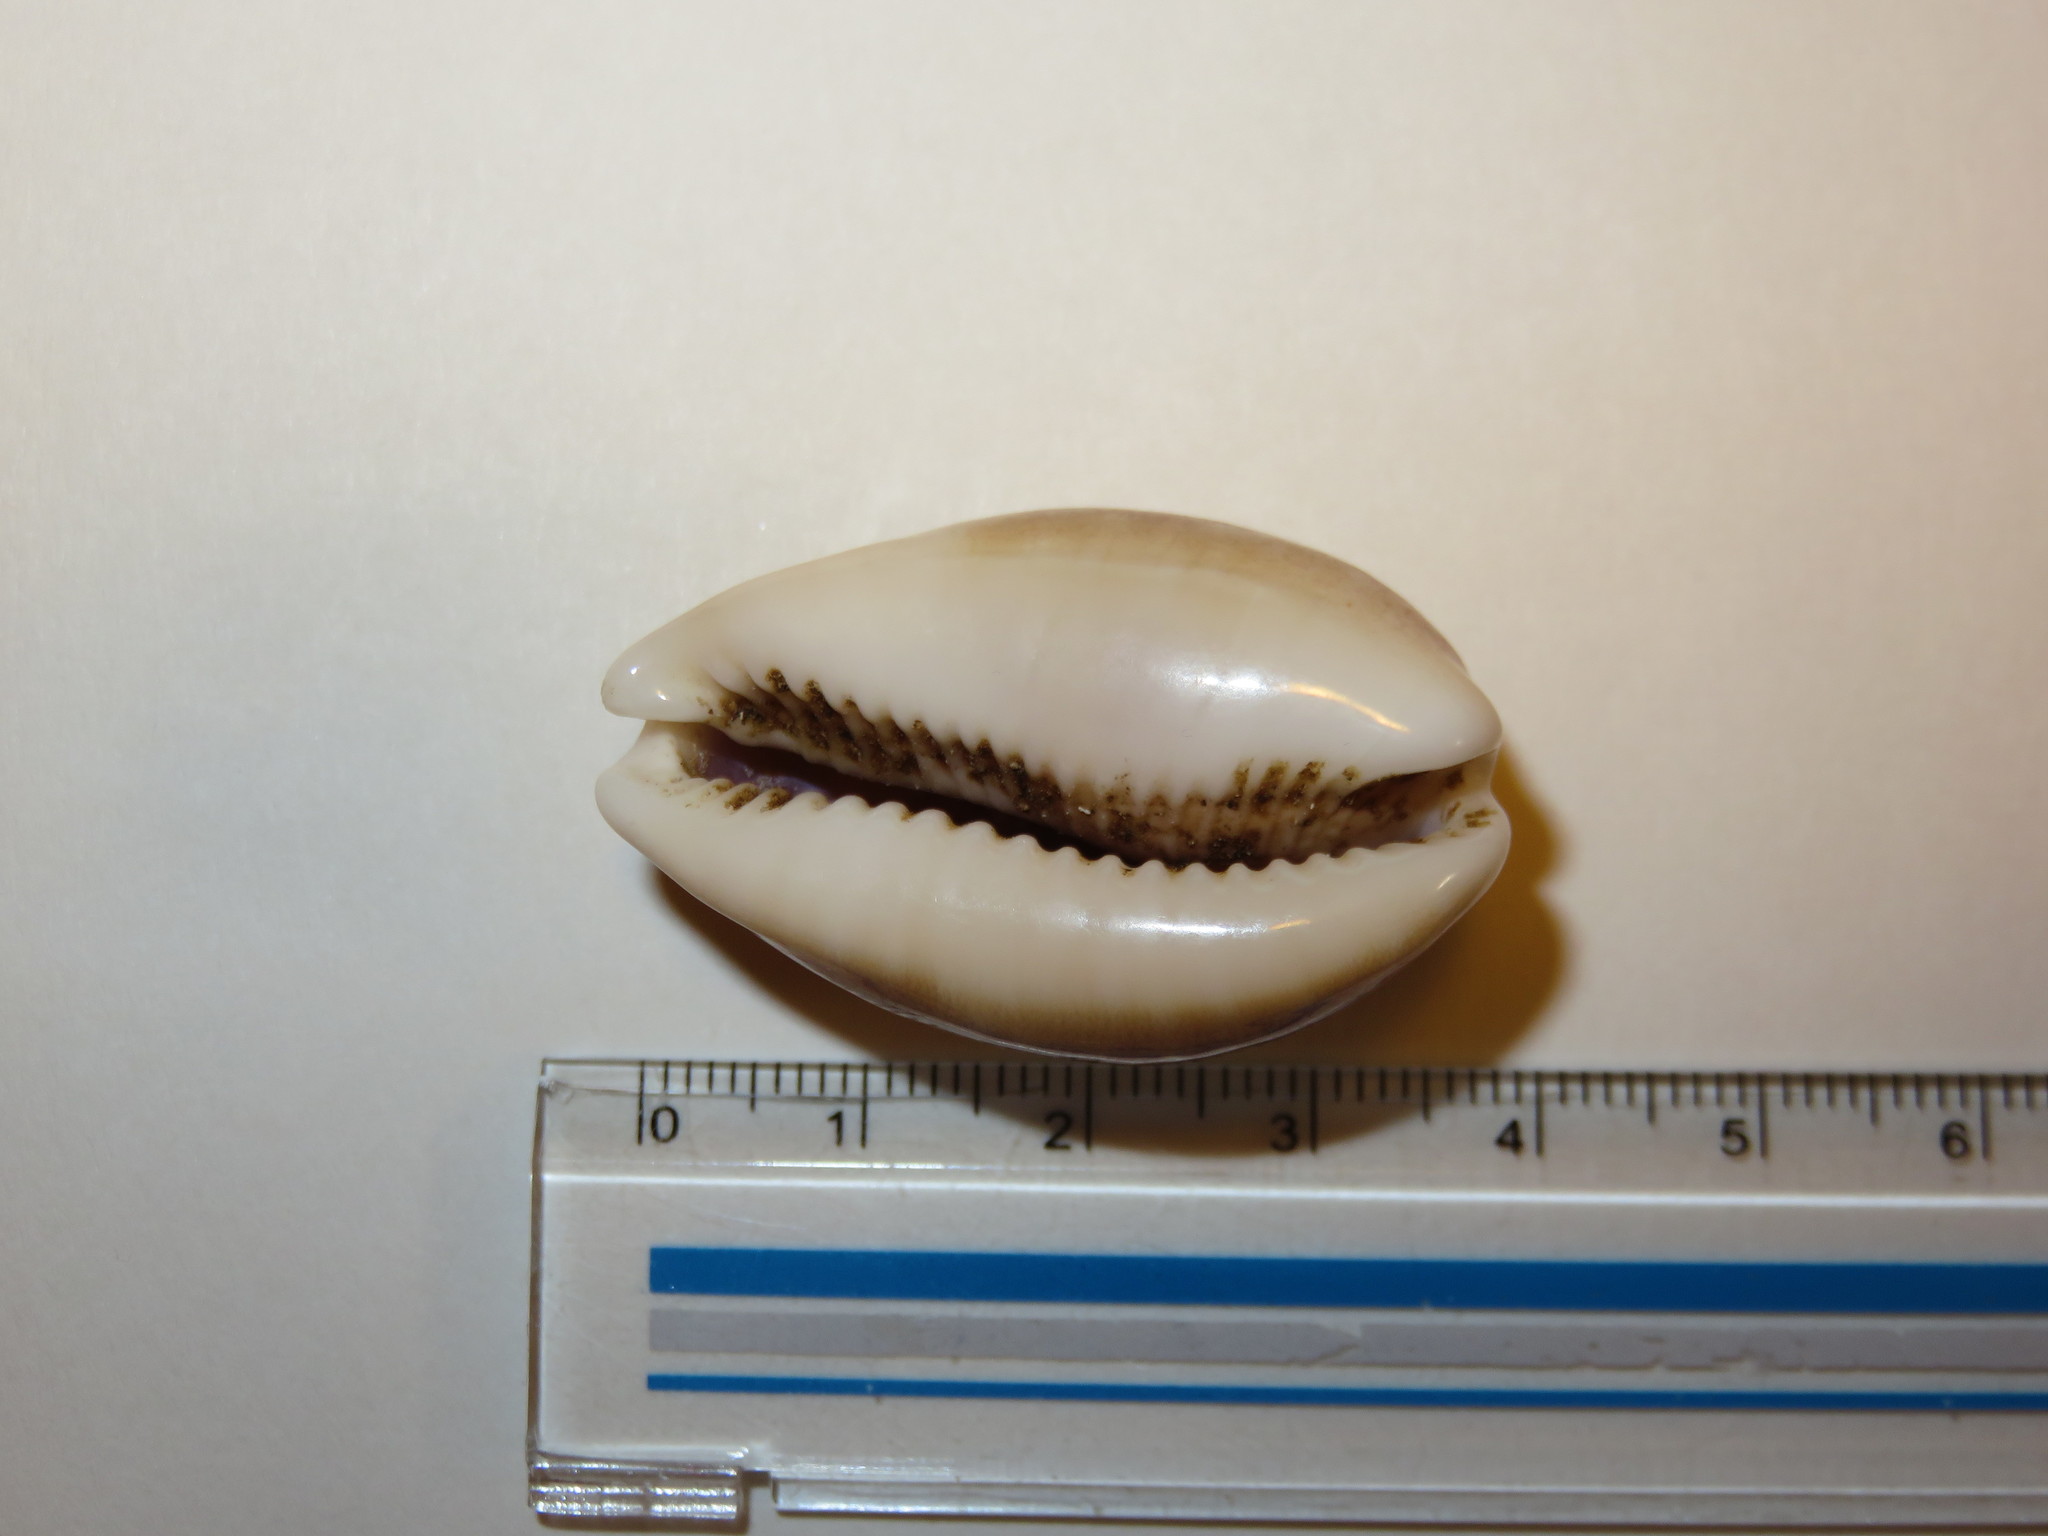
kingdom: Animalia
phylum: Mollusca
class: Gastropoda
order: Littorinimorpha
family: Cypraeidae
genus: Lyncina
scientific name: Lyncina vitellus
